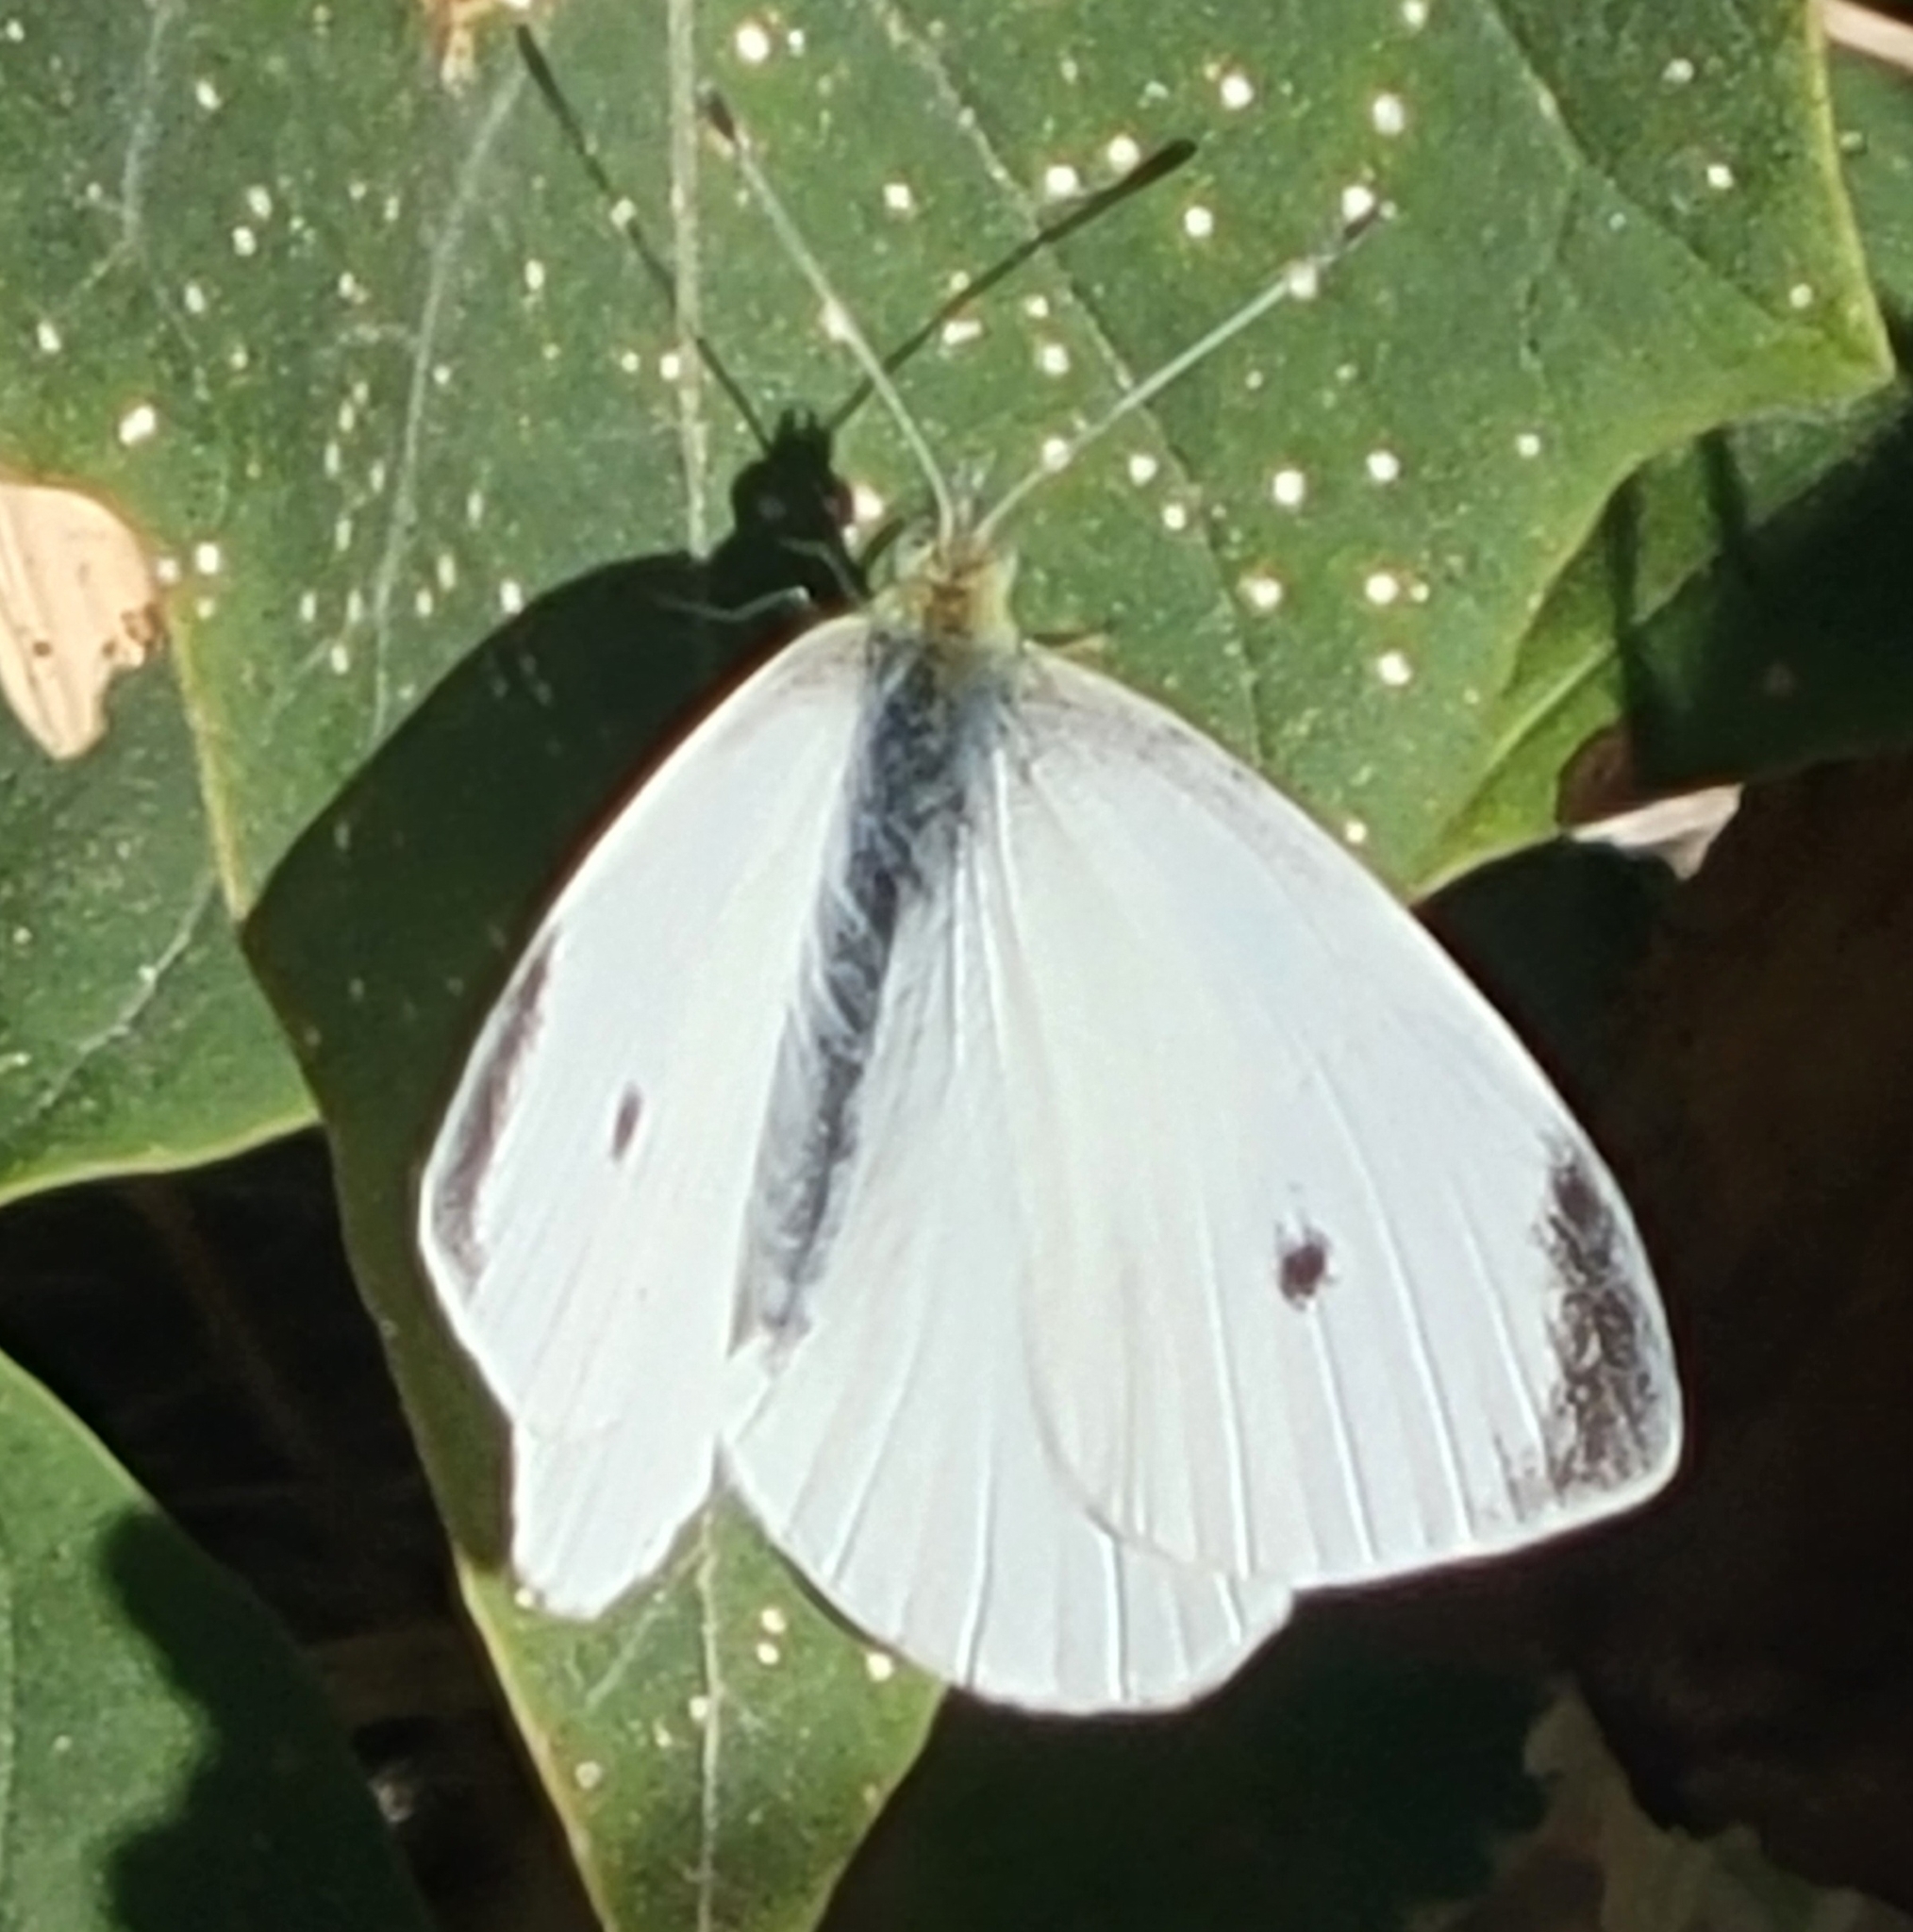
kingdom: Animalia
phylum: Arthropoda
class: Insecta
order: Lepidoptera
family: Pieridae
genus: Pieris
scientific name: Pieris rapae
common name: Small white
